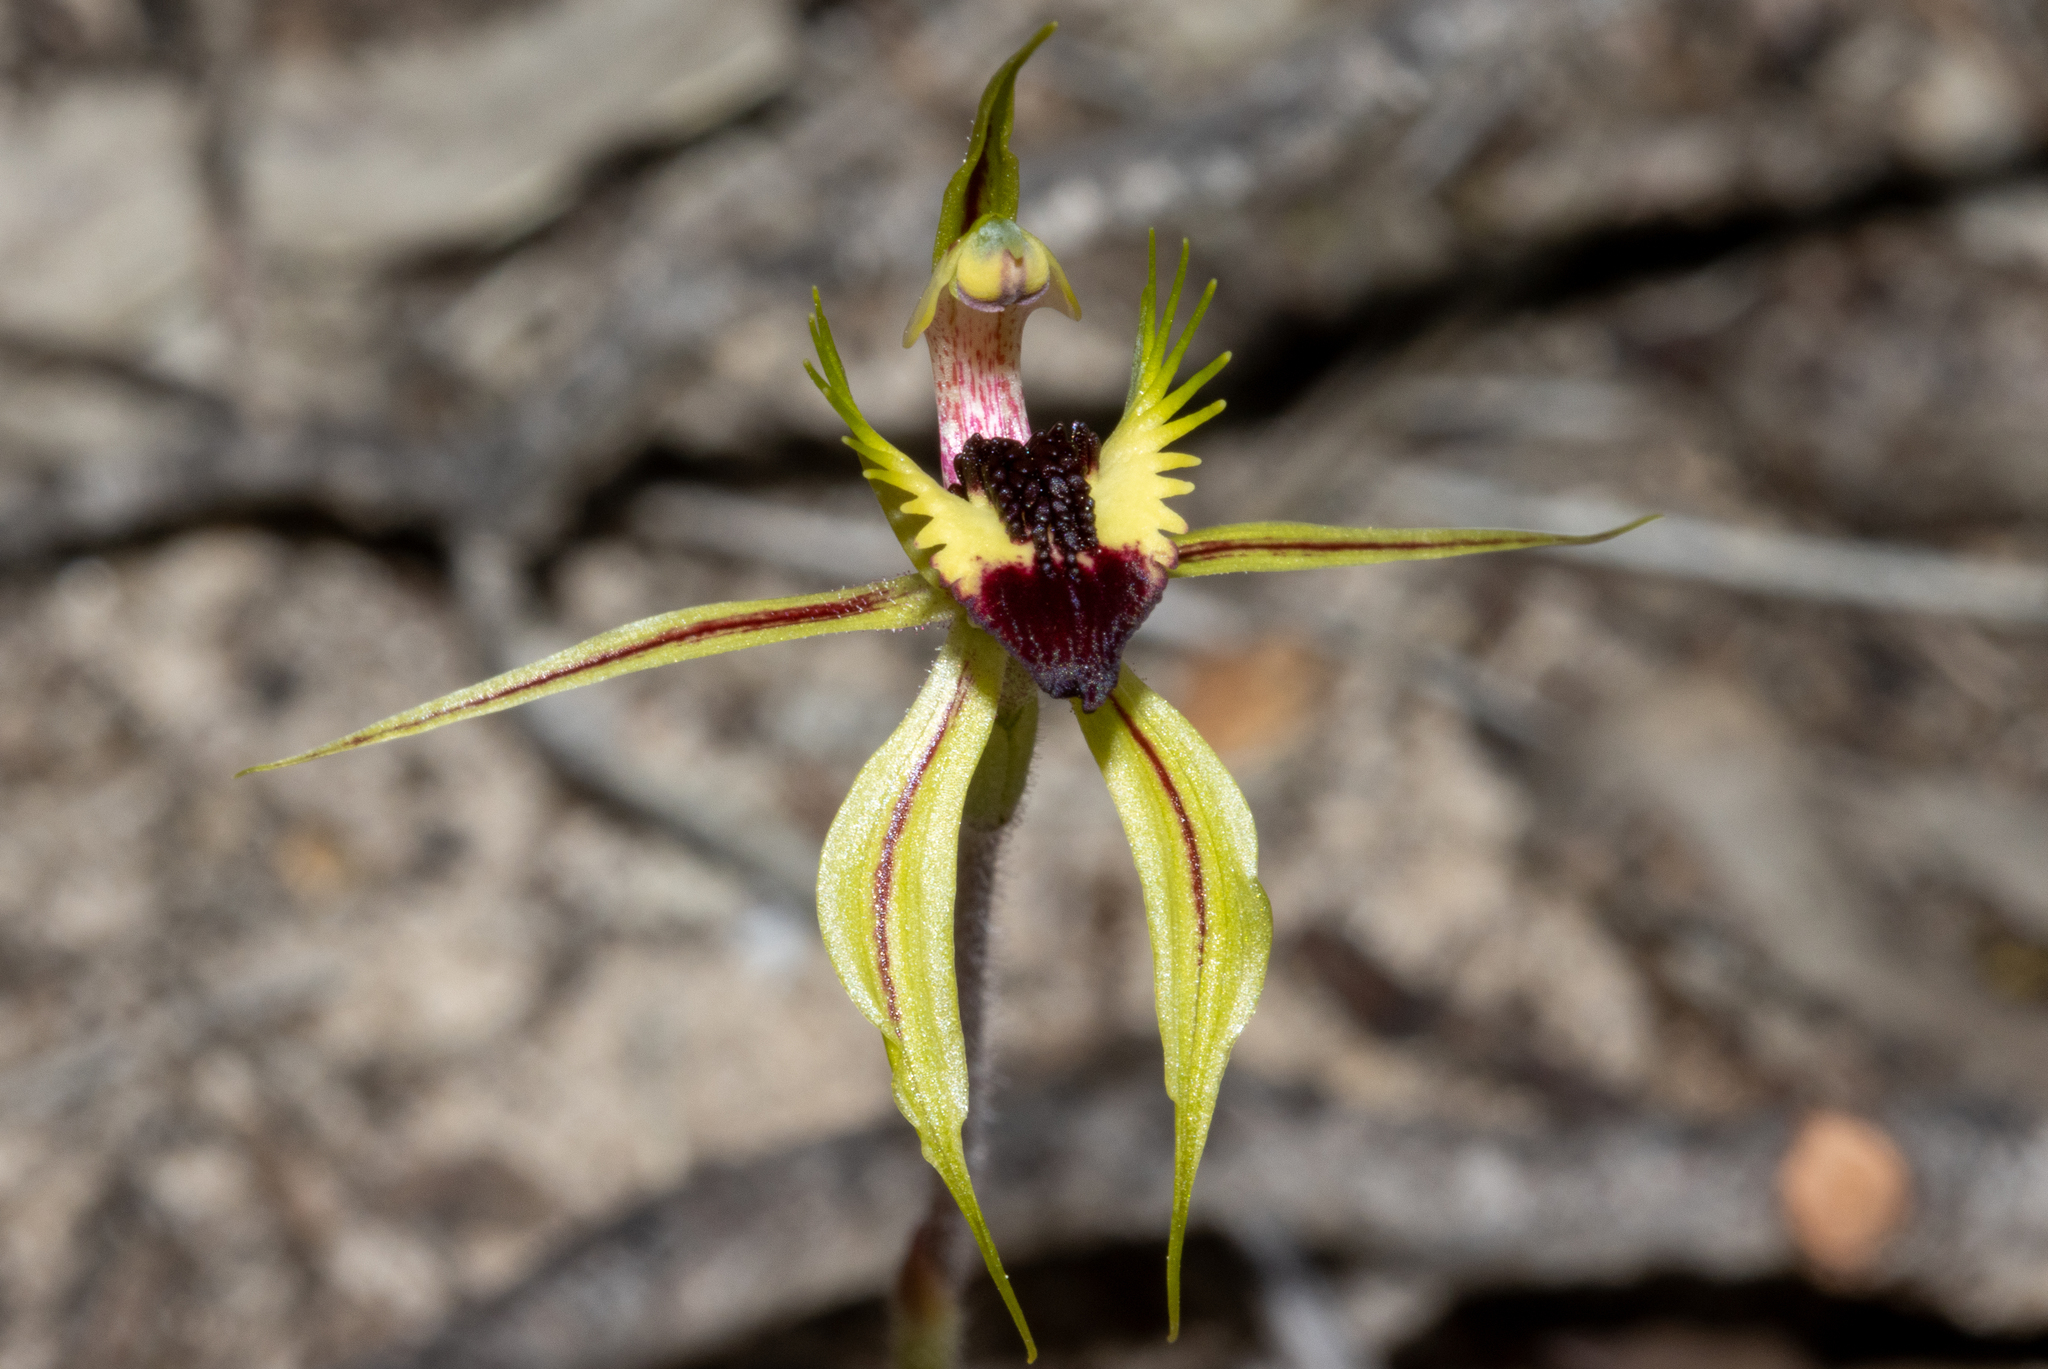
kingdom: Plantae
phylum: Tracheophyta
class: Liliopsida
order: Asparagales
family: Orchidaceae
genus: Caladenia
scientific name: Caladenia stricta
